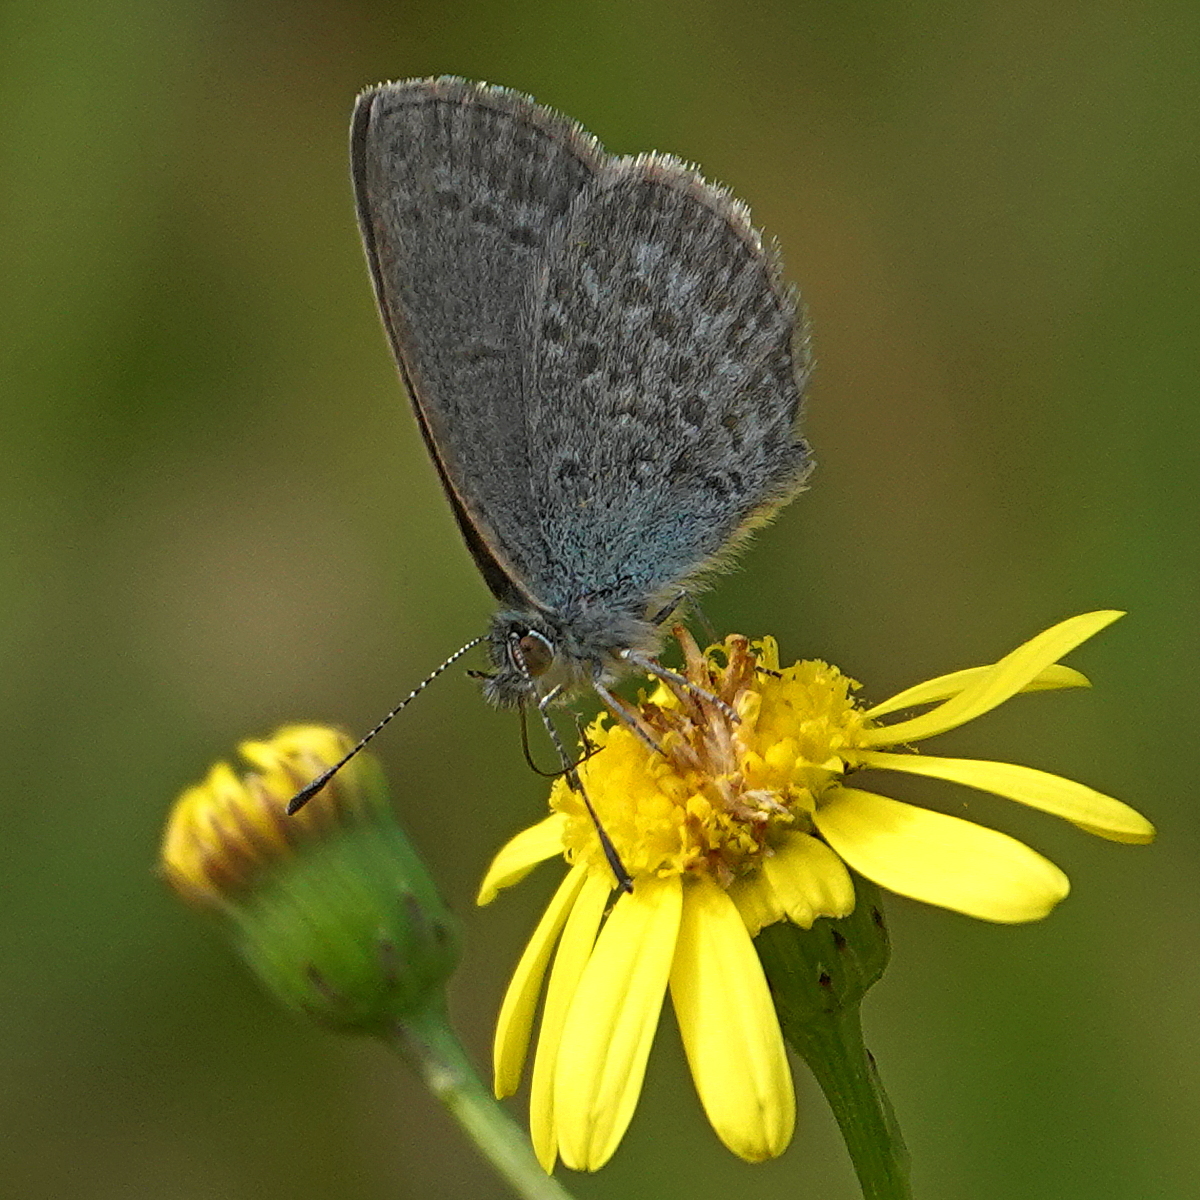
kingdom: Animalia
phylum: Arthropoda
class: Insecta
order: Lepidoptera
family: Lycaenidae
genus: Zizina
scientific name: Zizina otis
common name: Lesser grass blue
